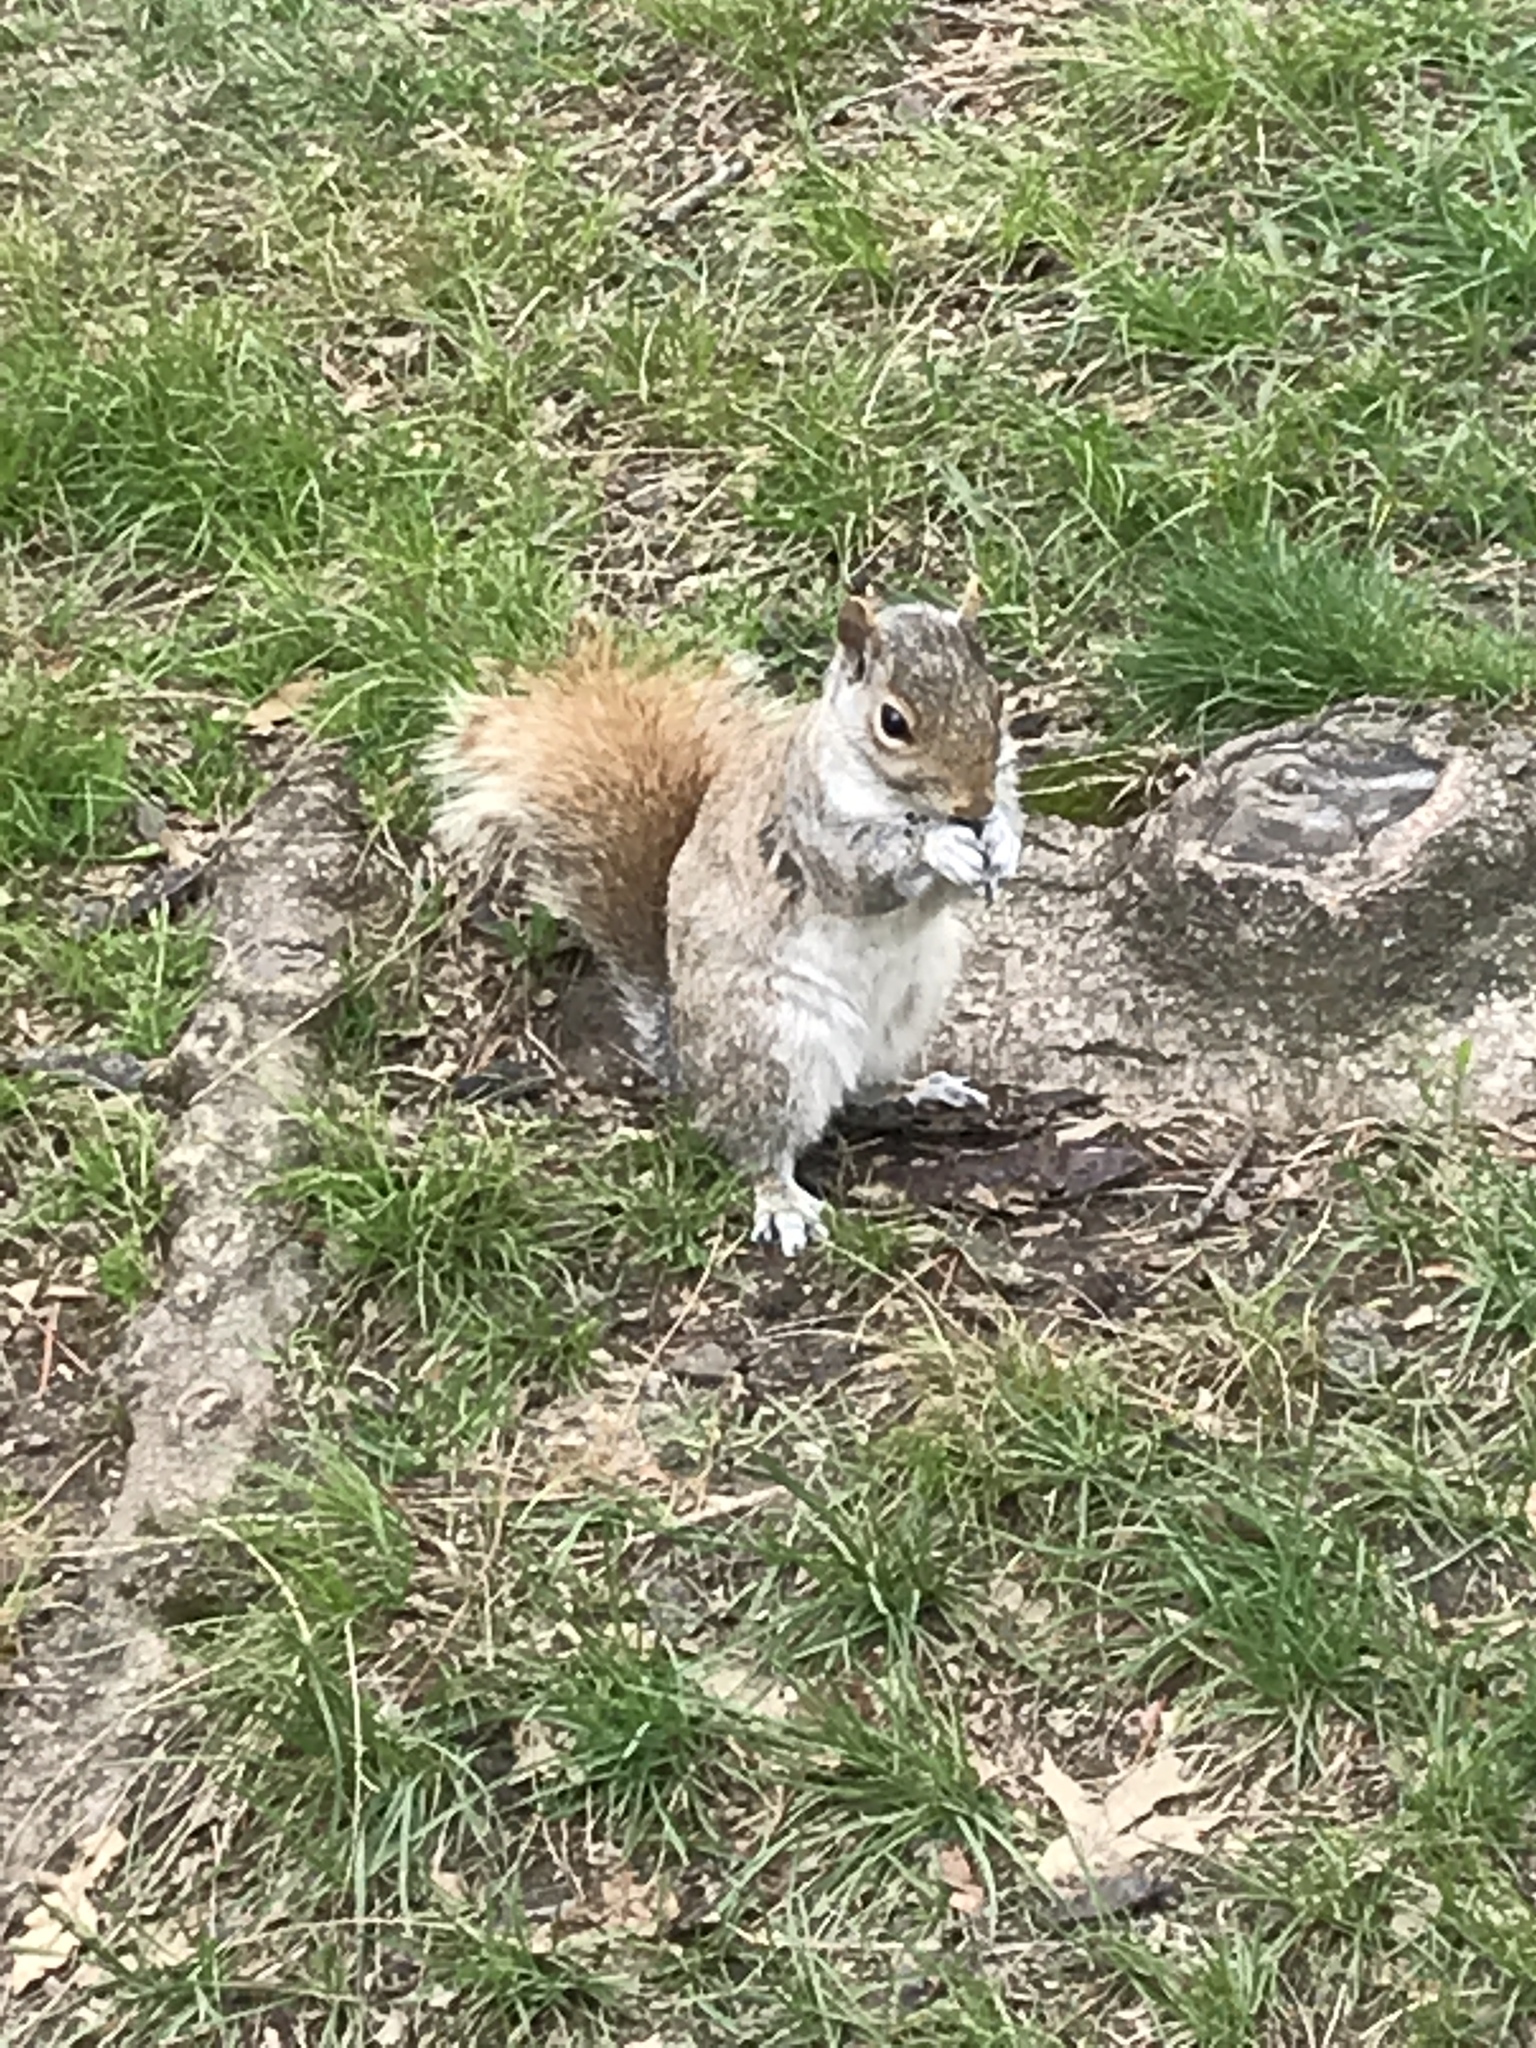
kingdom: Animalia
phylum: Chordata
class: Mammalia
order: Rodentia
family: Sciuridae
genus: Sciurus
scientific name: Sciurus carolinensis
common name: Eastern gray squirrel
